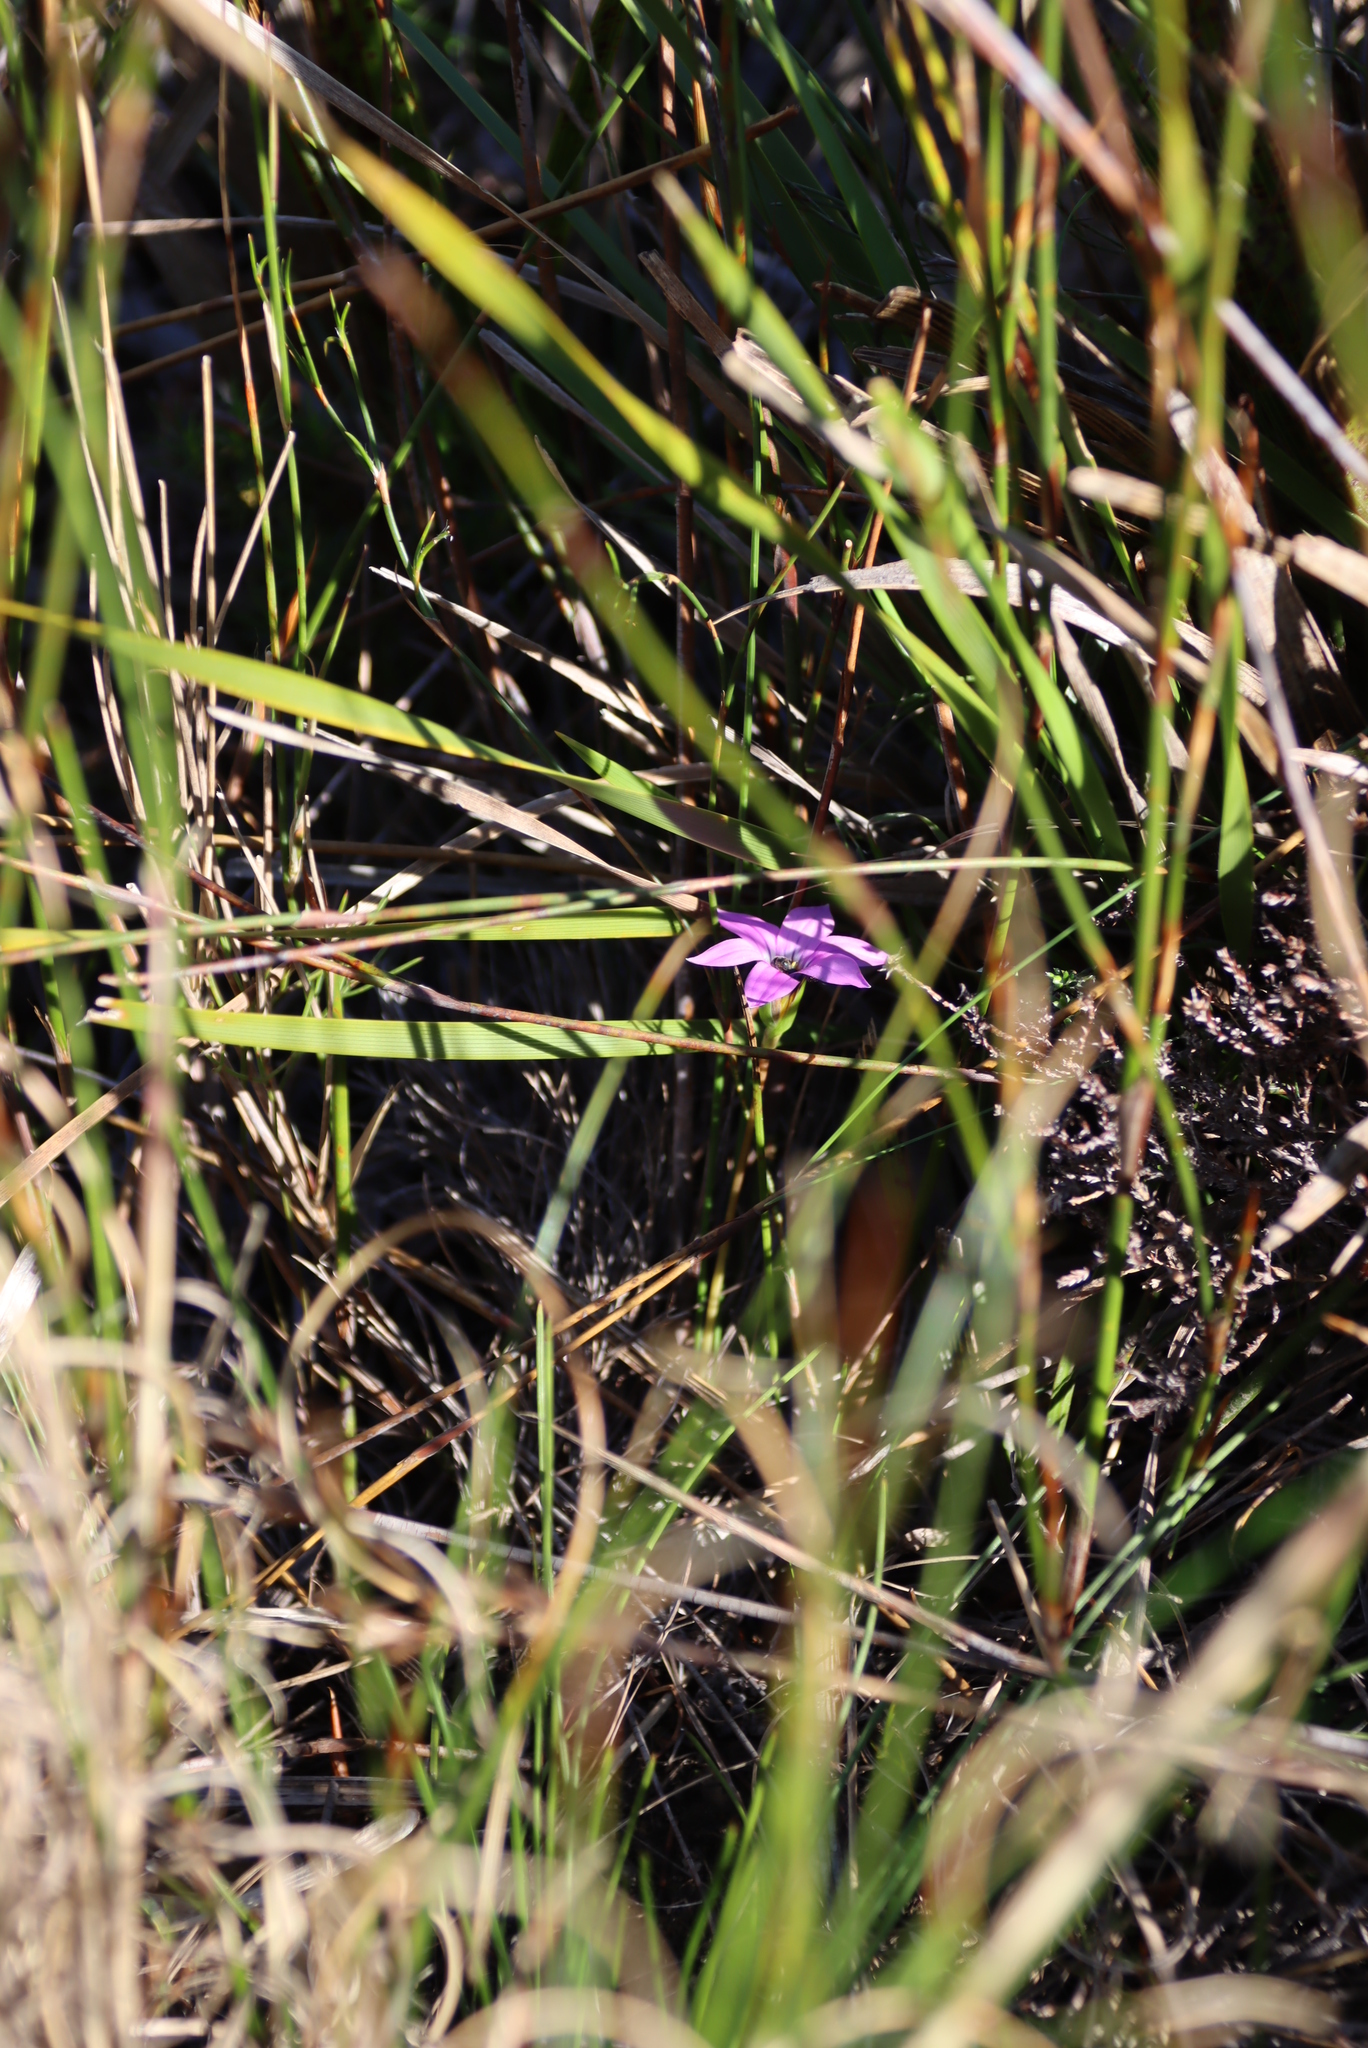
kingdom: Plantae
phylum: Tracheophyta
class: Liliopsida
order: Asparagales
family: Iridaceae
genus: Romulea
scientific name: Romulea rosea
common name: Oniongrass
